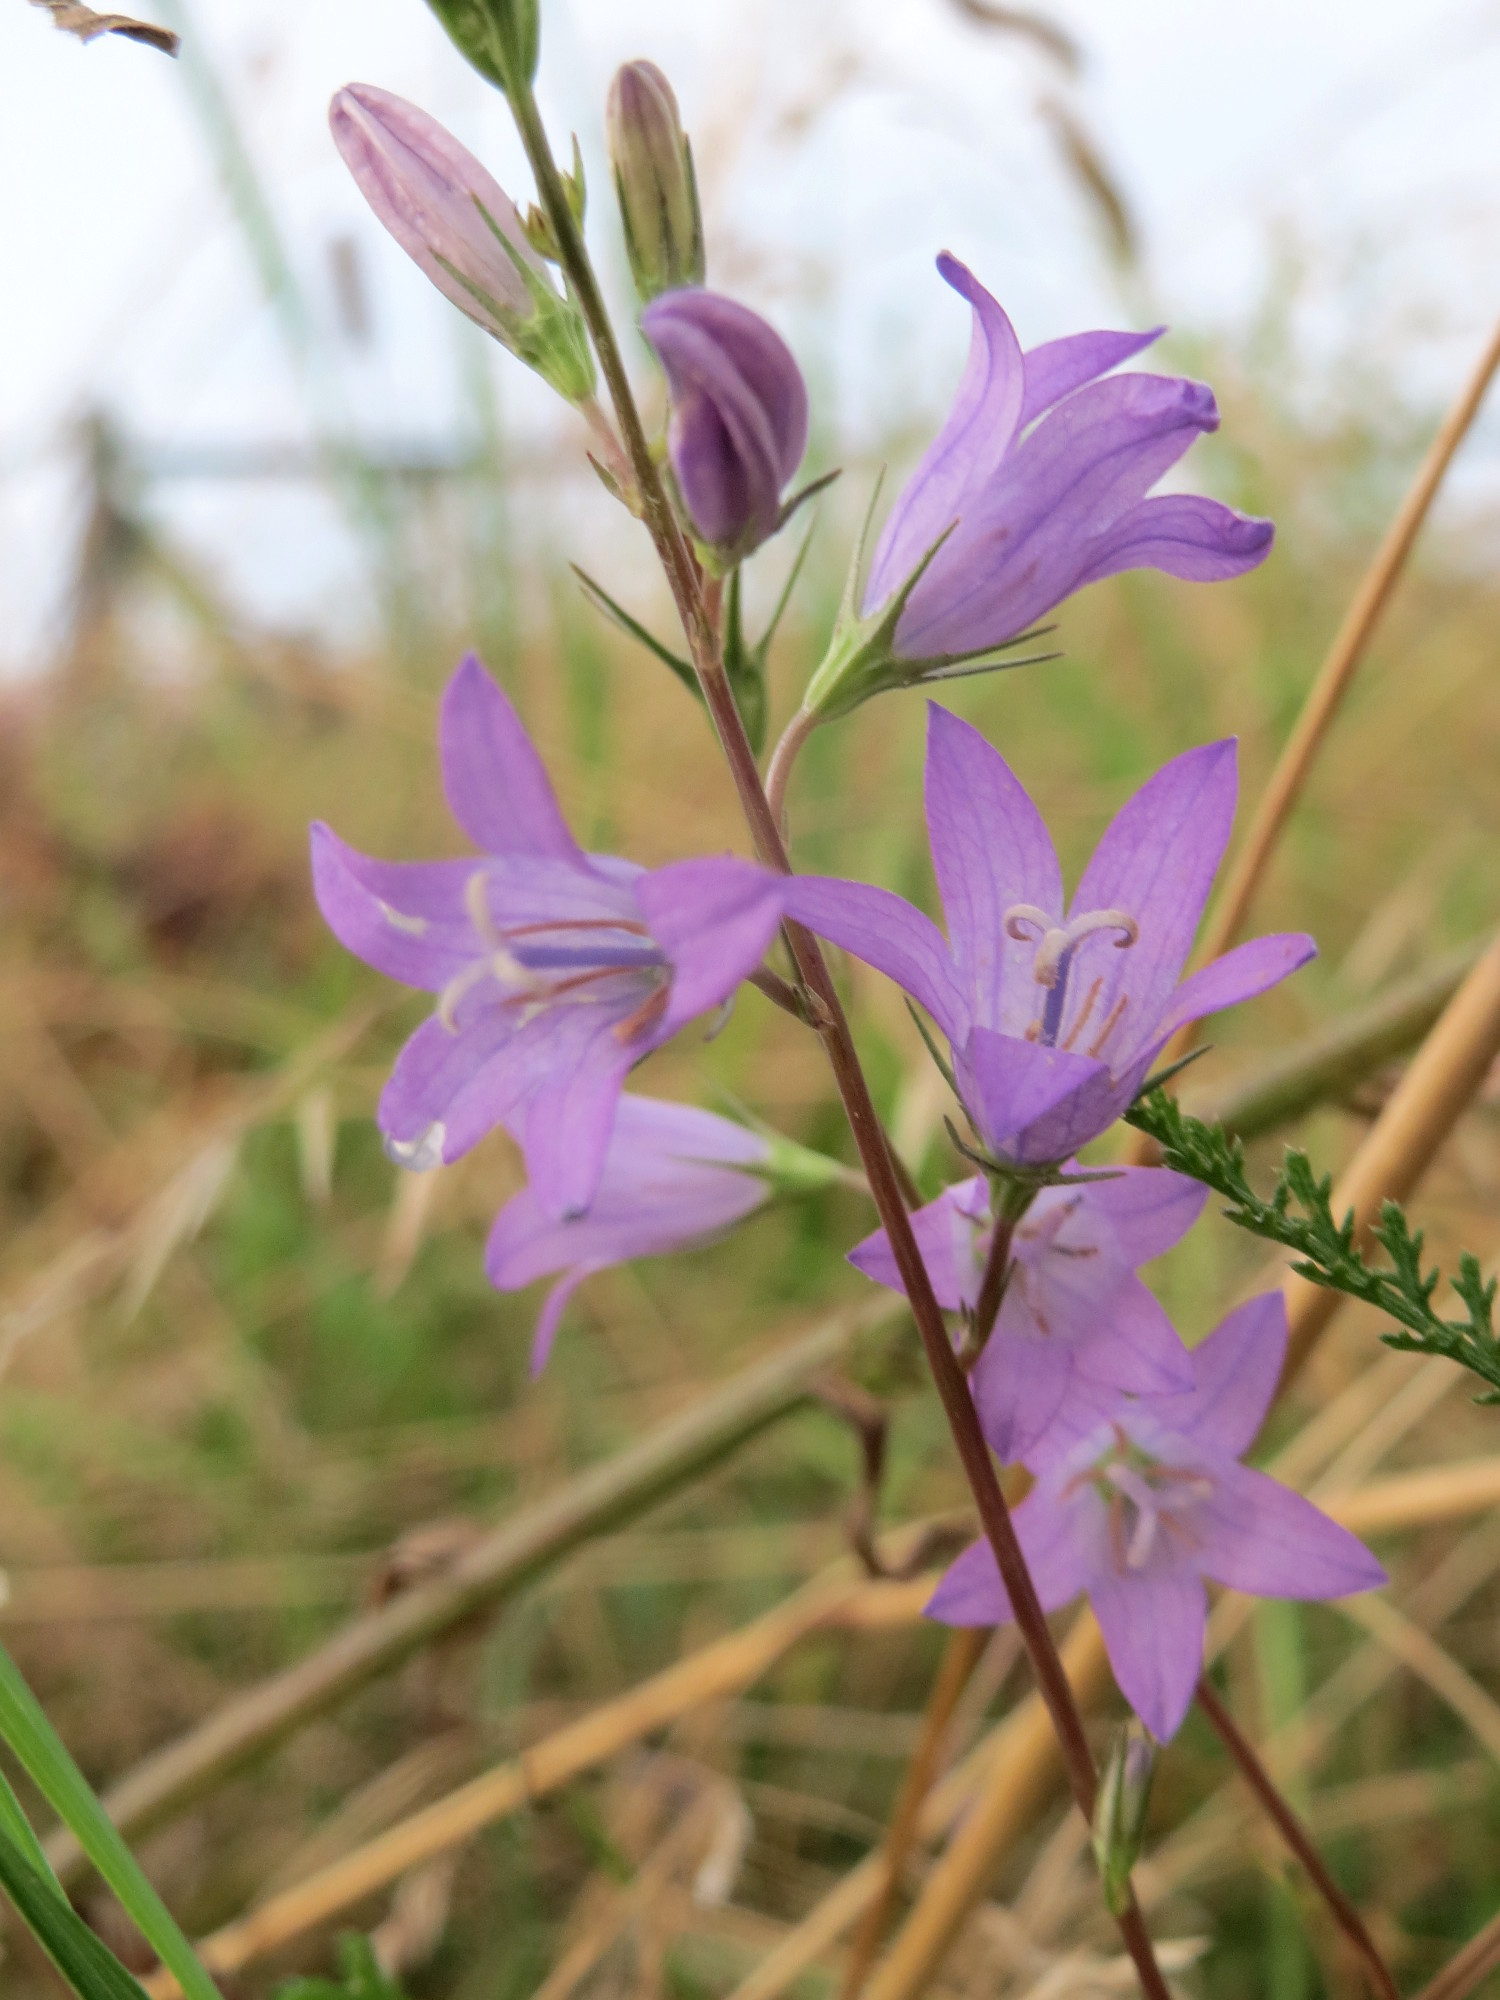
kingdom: Plantae
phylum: Tracheophyta
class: Magnoliopsida
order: Asterales
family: Campanulaceae
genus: Campanula
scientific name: Campanula rapunculus
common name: Rampion bellflower
